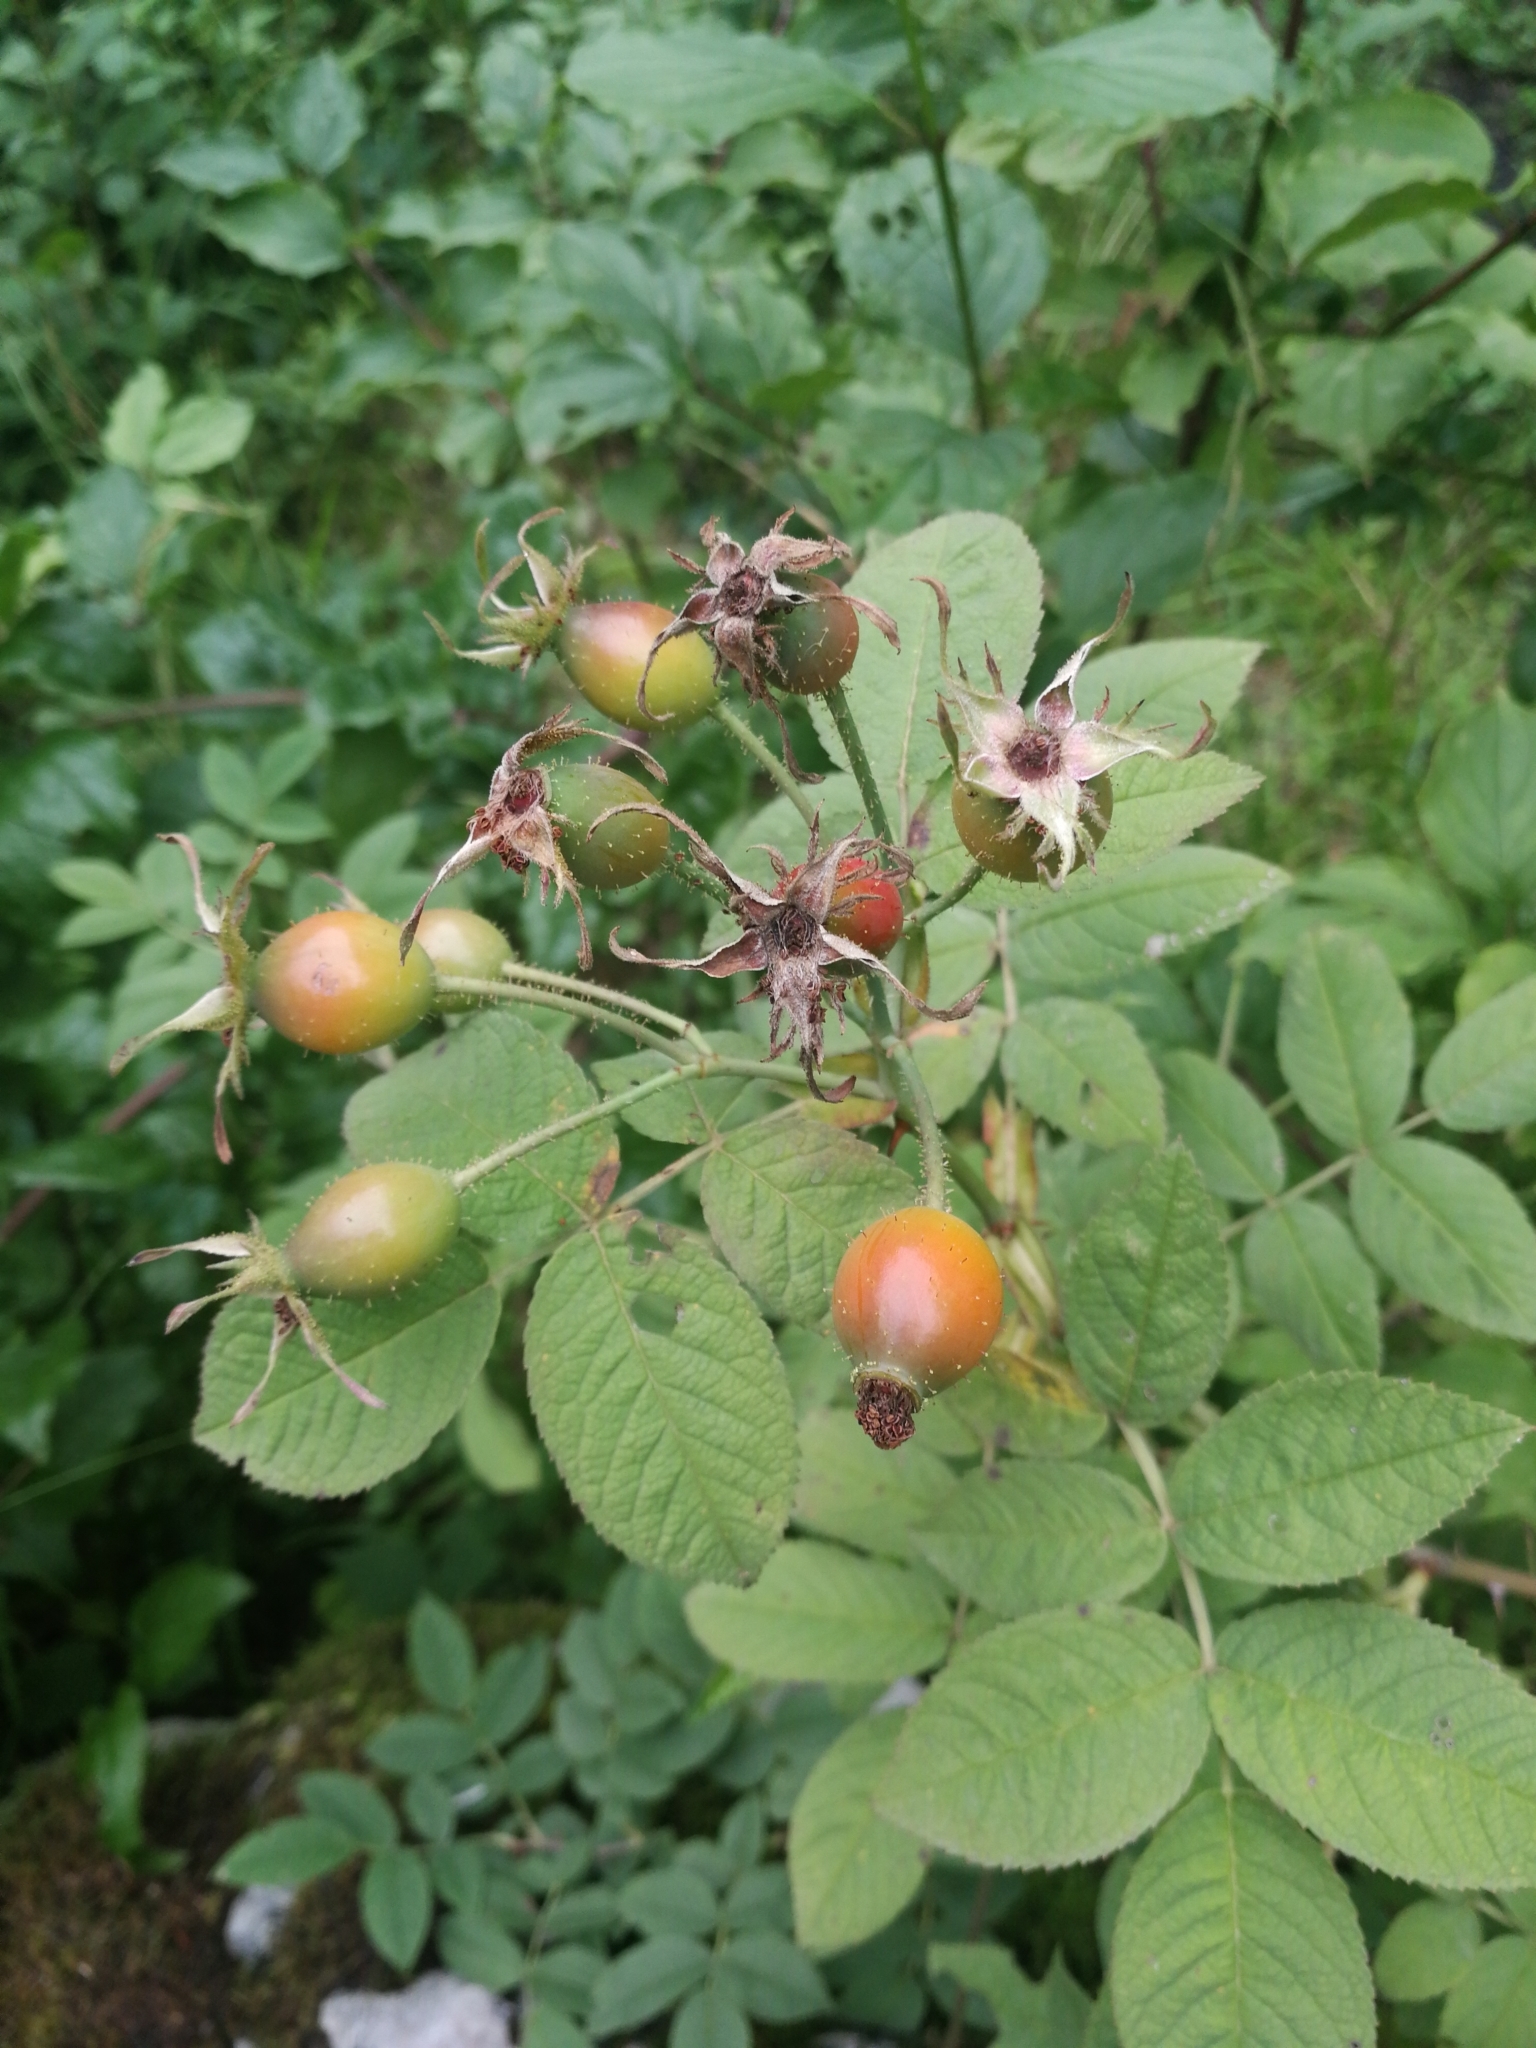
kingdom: Plantae
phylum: Tracheophyta
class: Magnoliopsida
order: Rosales
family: Rosaceae
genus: Rosa
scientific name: Rosa tomentosa
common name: Downy rose
